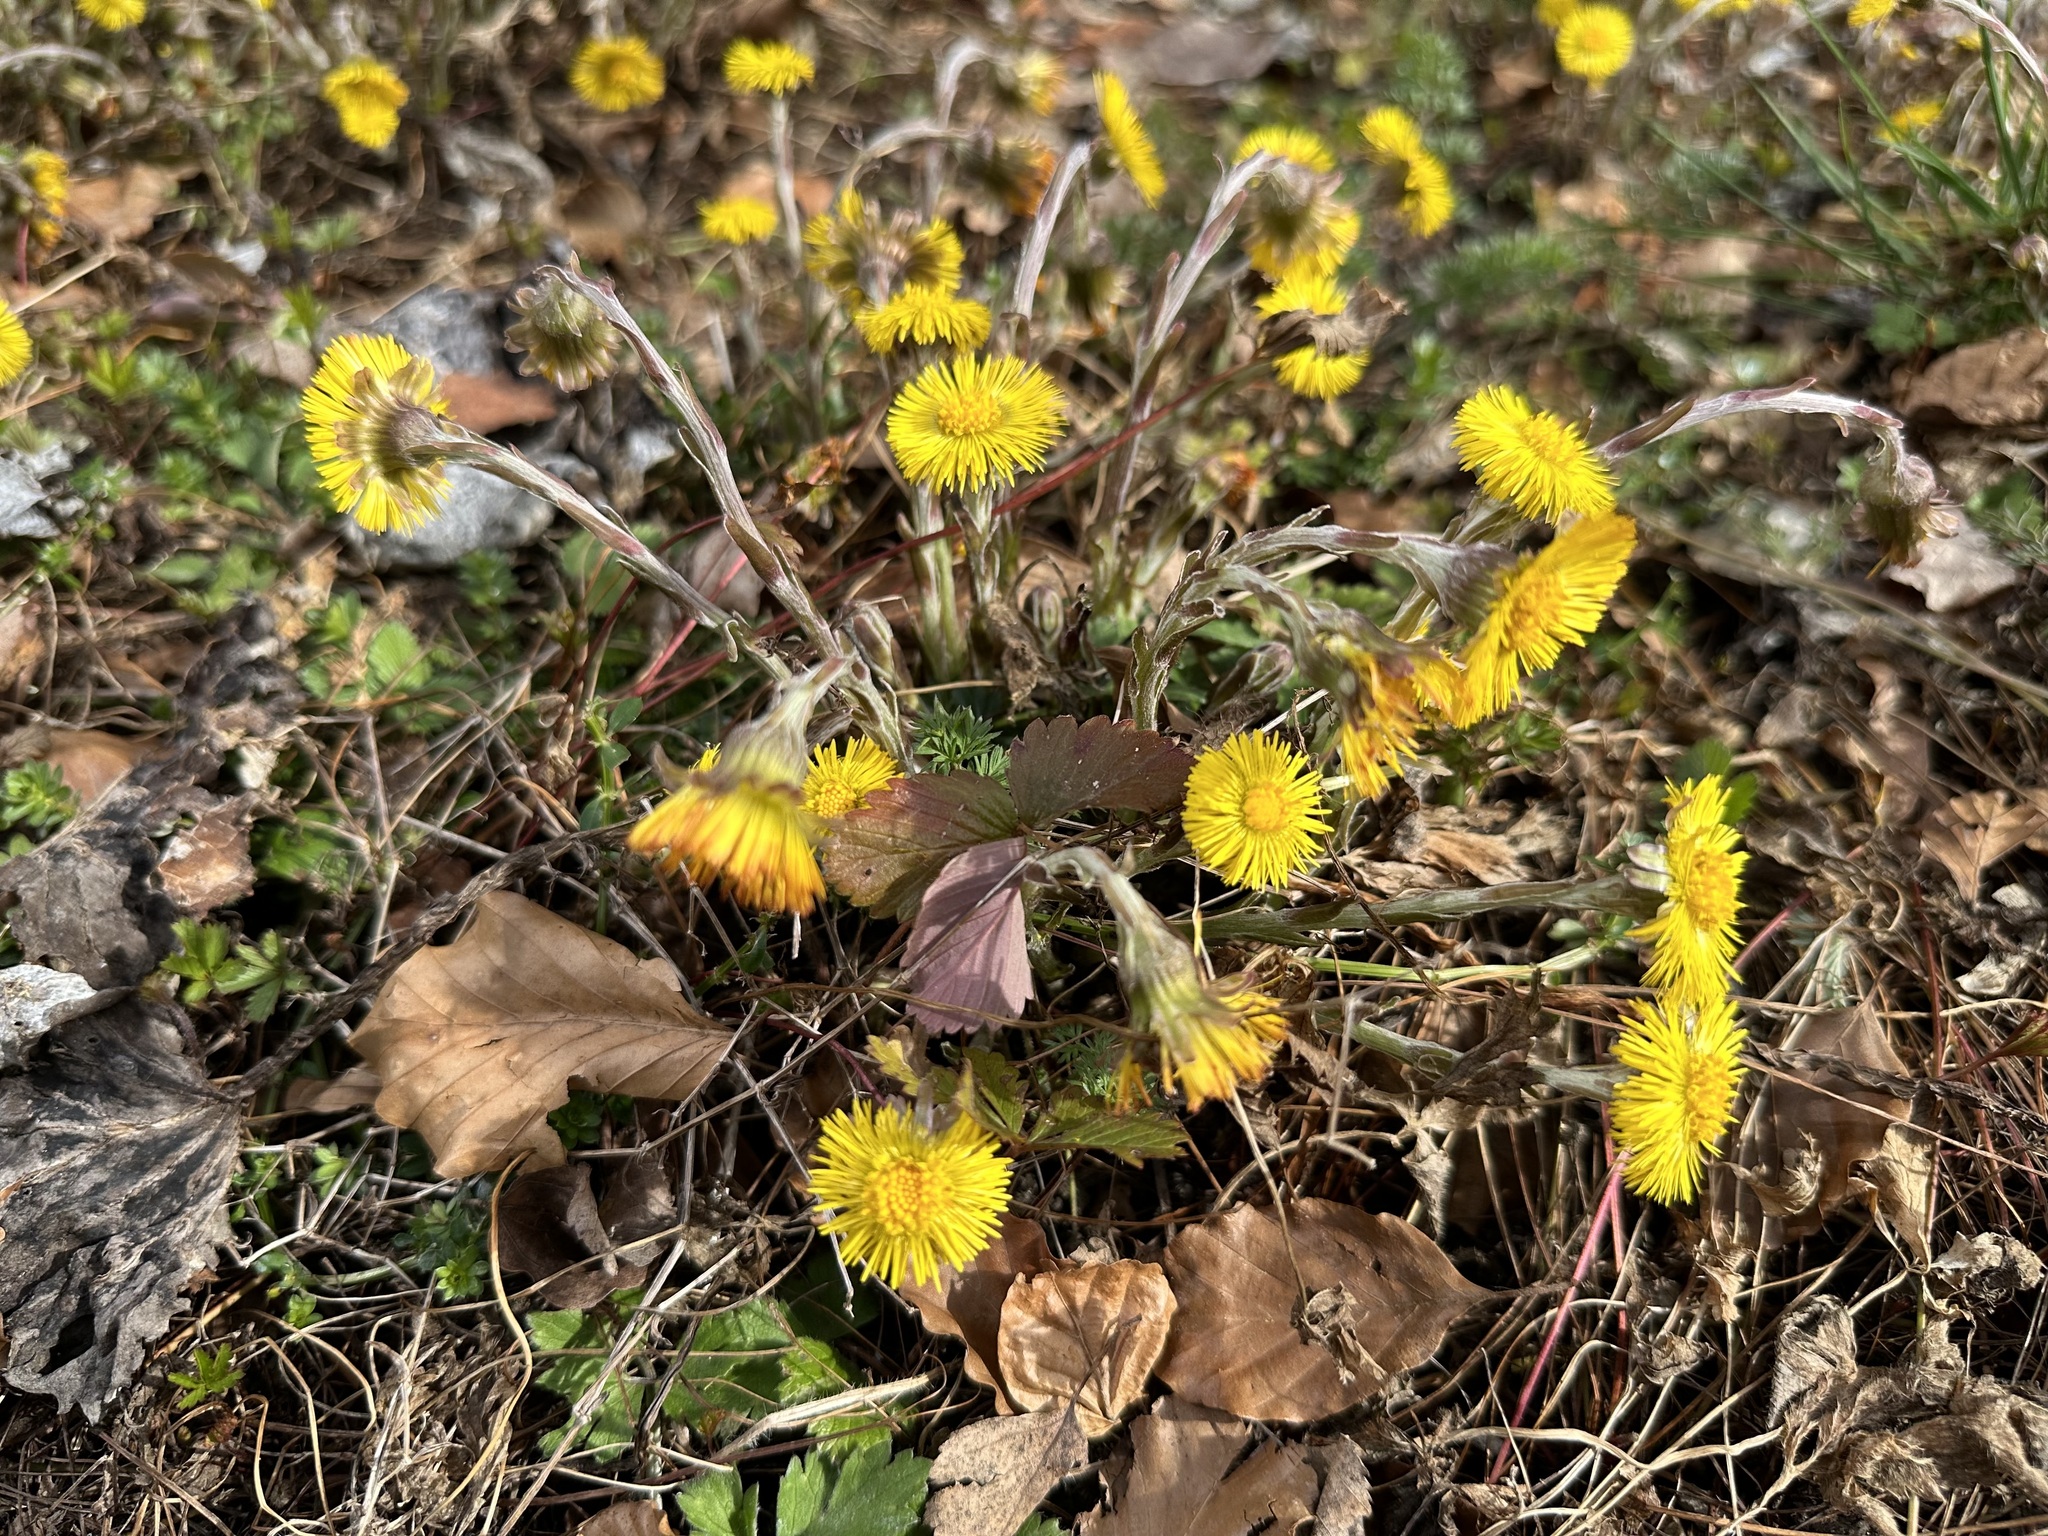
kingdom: Plantae
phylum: Tracheophyta
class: Magnoliopsida
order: Asterales
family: Asteraceae
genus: Tussilago
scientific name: Tussilago farfara
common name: Coltsfoot
